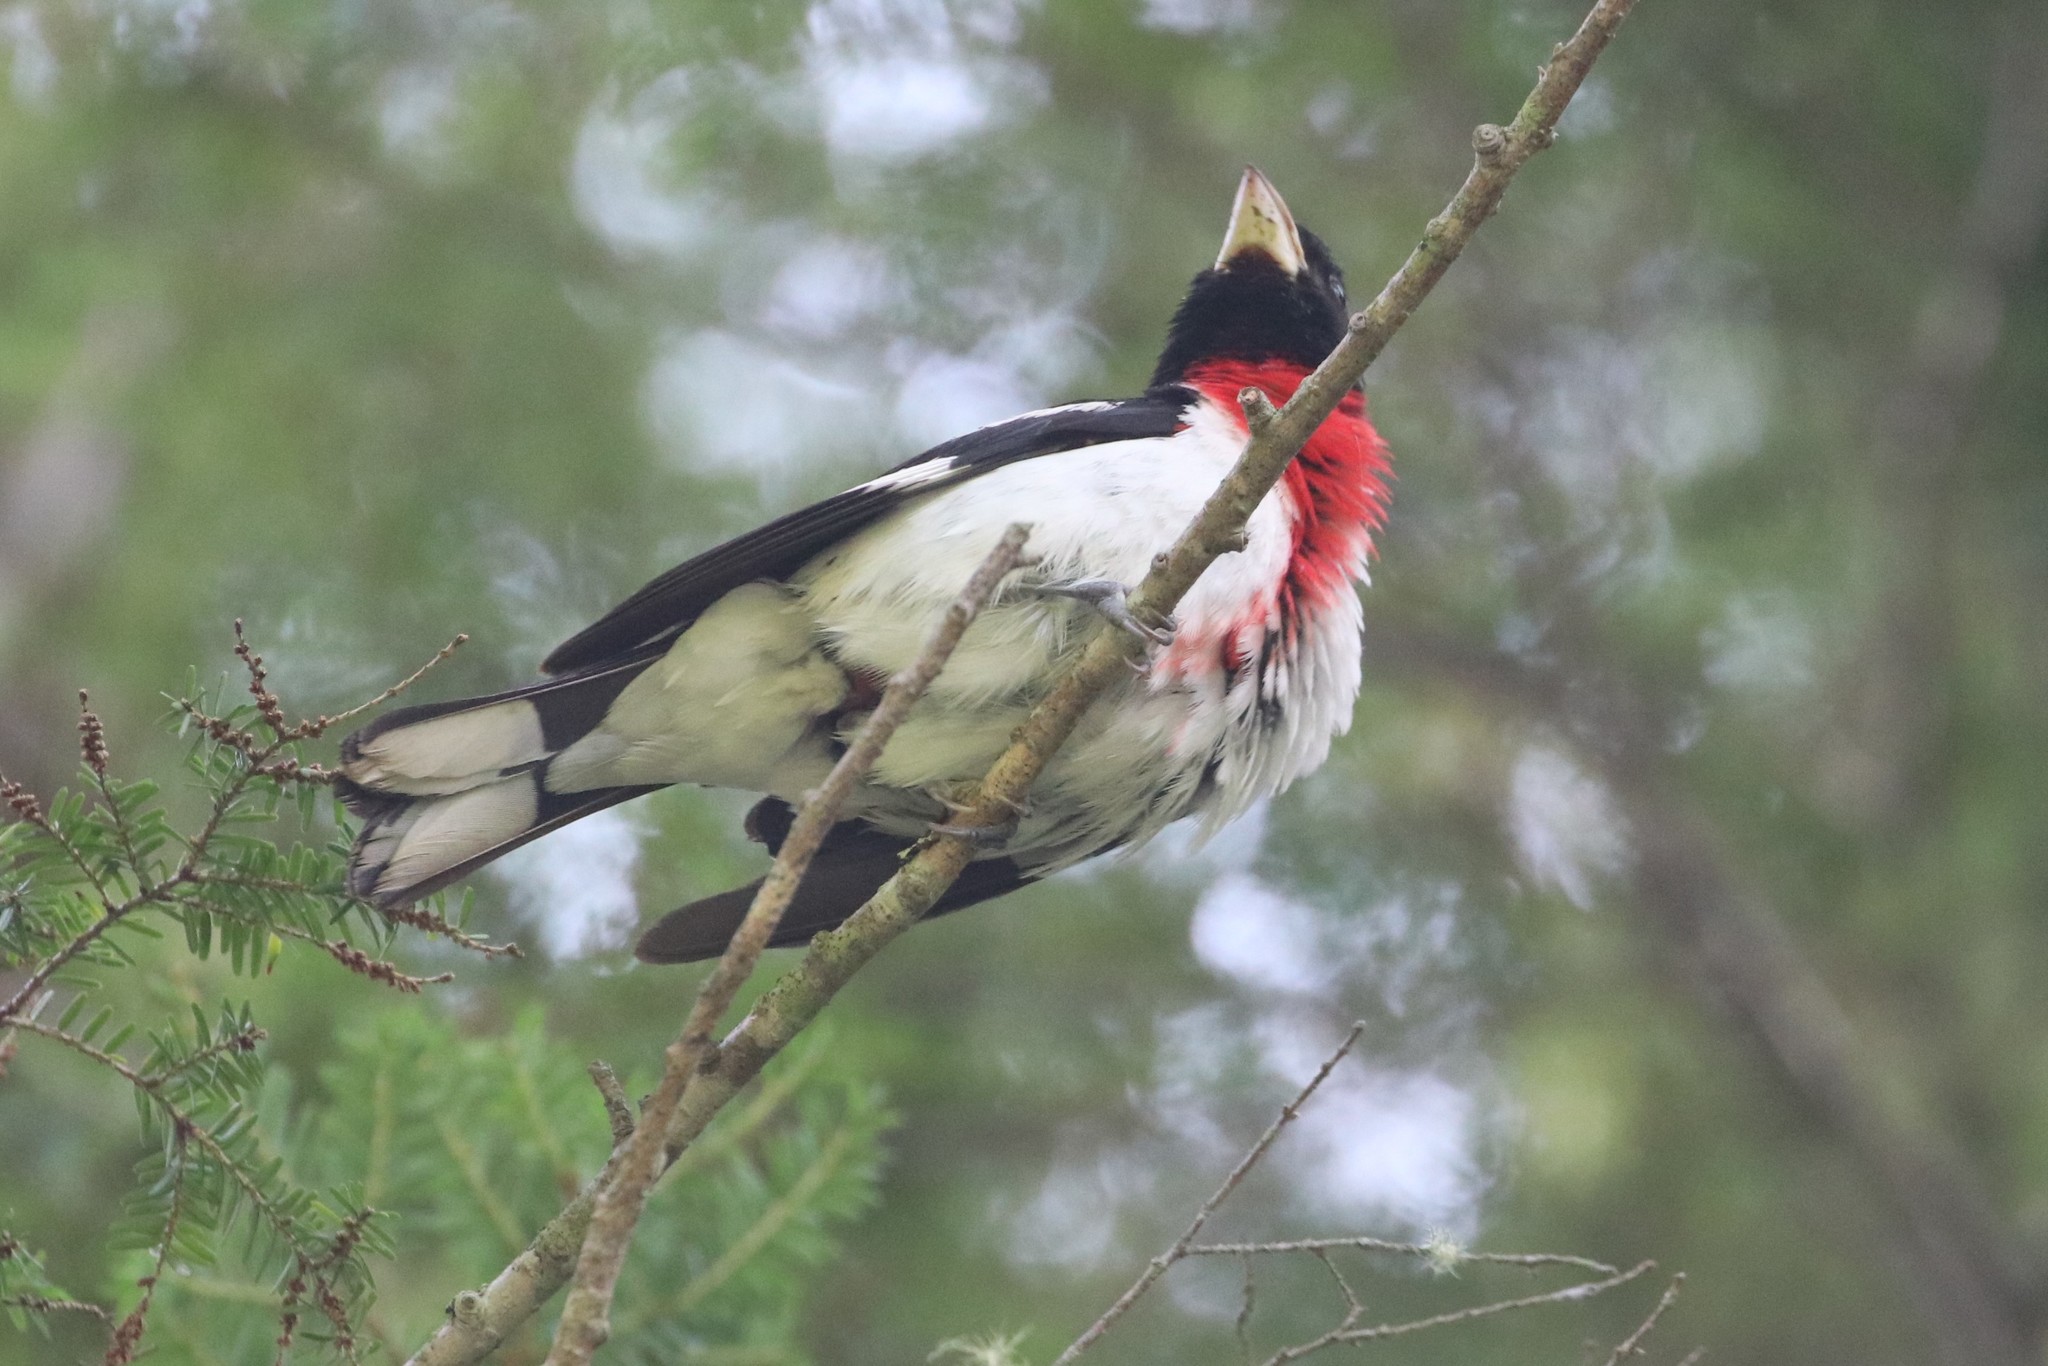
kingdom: Animalia
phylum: Chordata
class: Aves
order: Passeriformes
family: Cardinalidae
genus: Pheucticus
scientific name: Pheucticus ludovicianus
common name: Rose-breasted grosbeak
